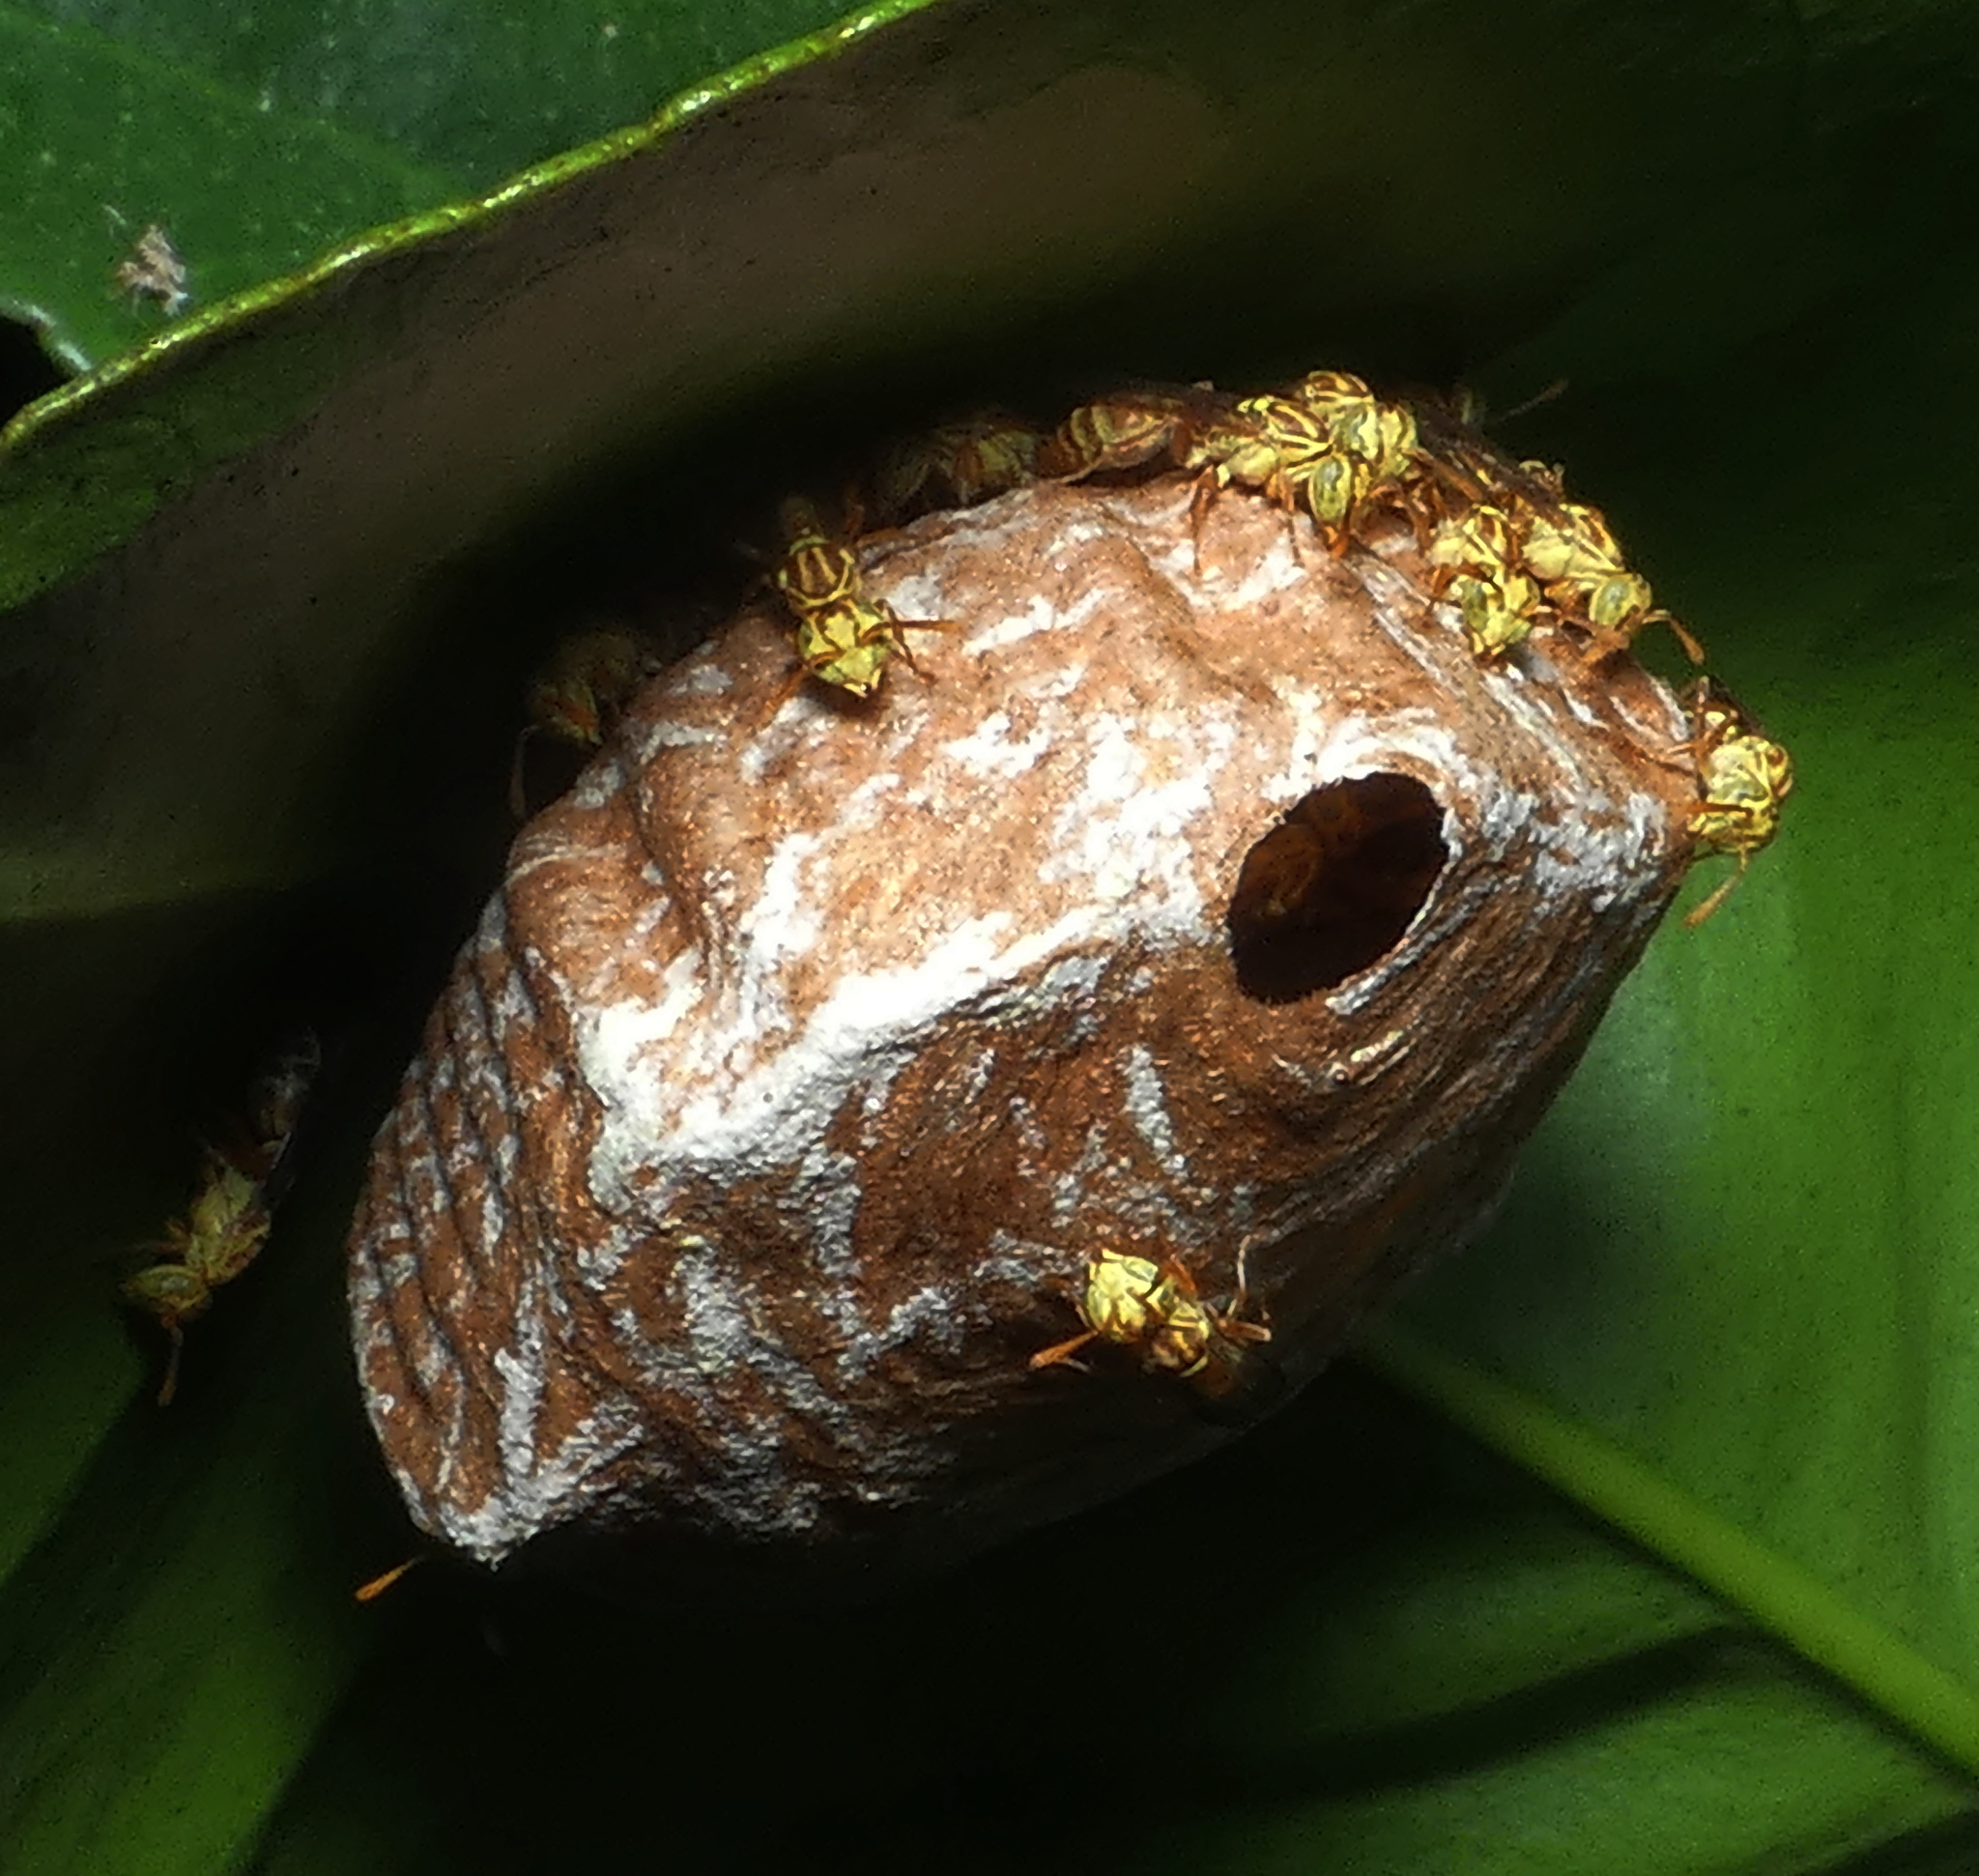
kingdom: Animalia
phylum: Arthropoda
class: Insecta
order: Hymenoptera
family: Vespidae
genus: Protopolybia
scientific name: Protopolybia potiguara
